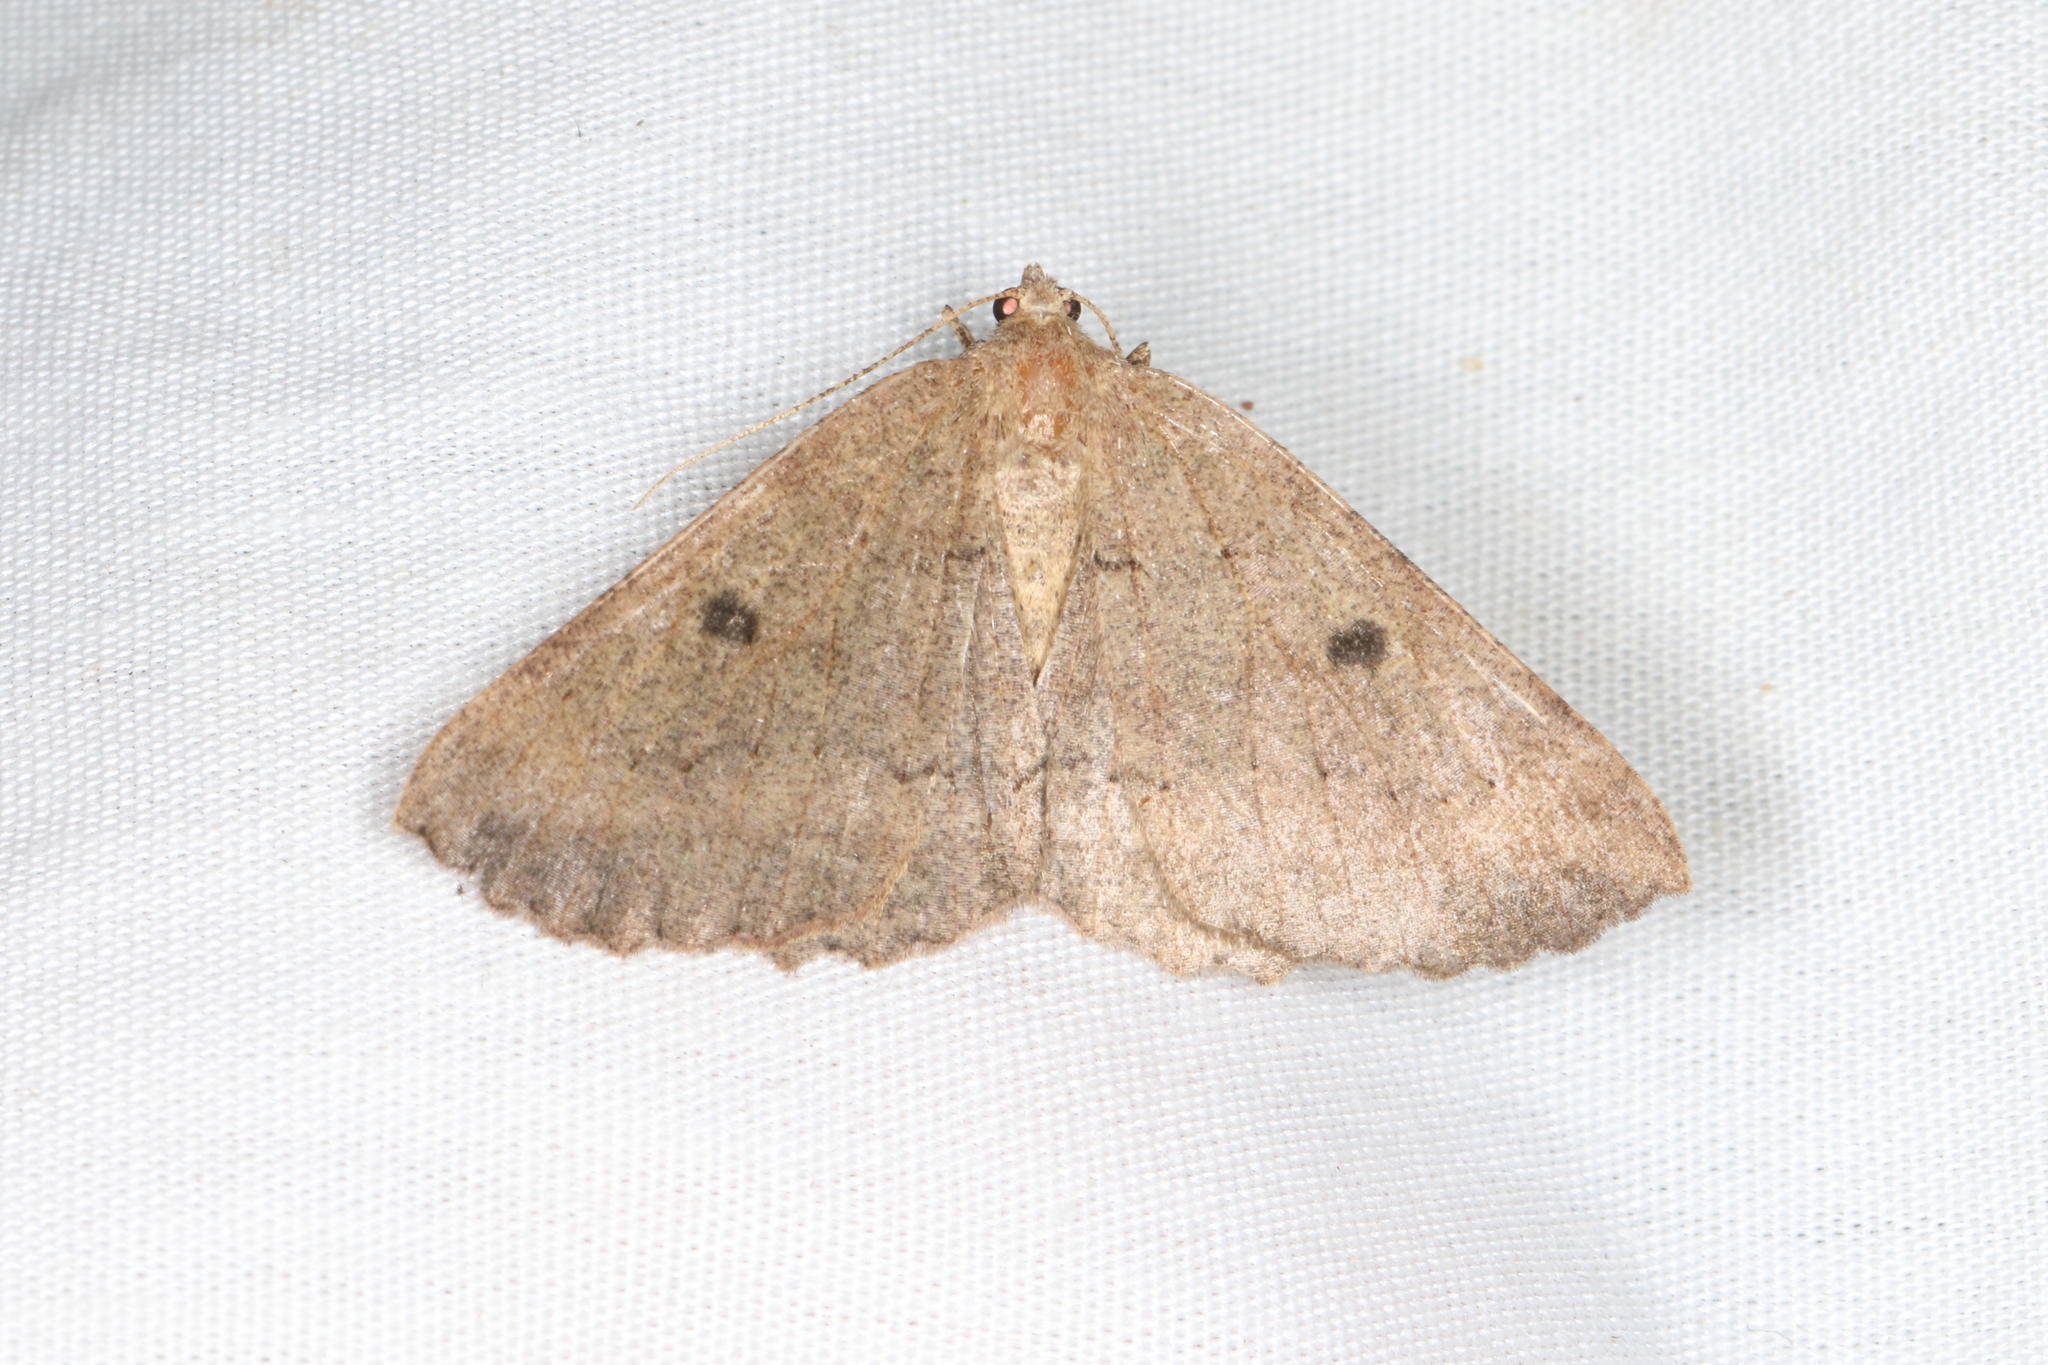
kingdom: Animalia
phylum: Arthropoda
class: Insecta
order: Lepidoptera
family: Geometridae
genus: Cleora
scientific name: Cleora scriptaria
